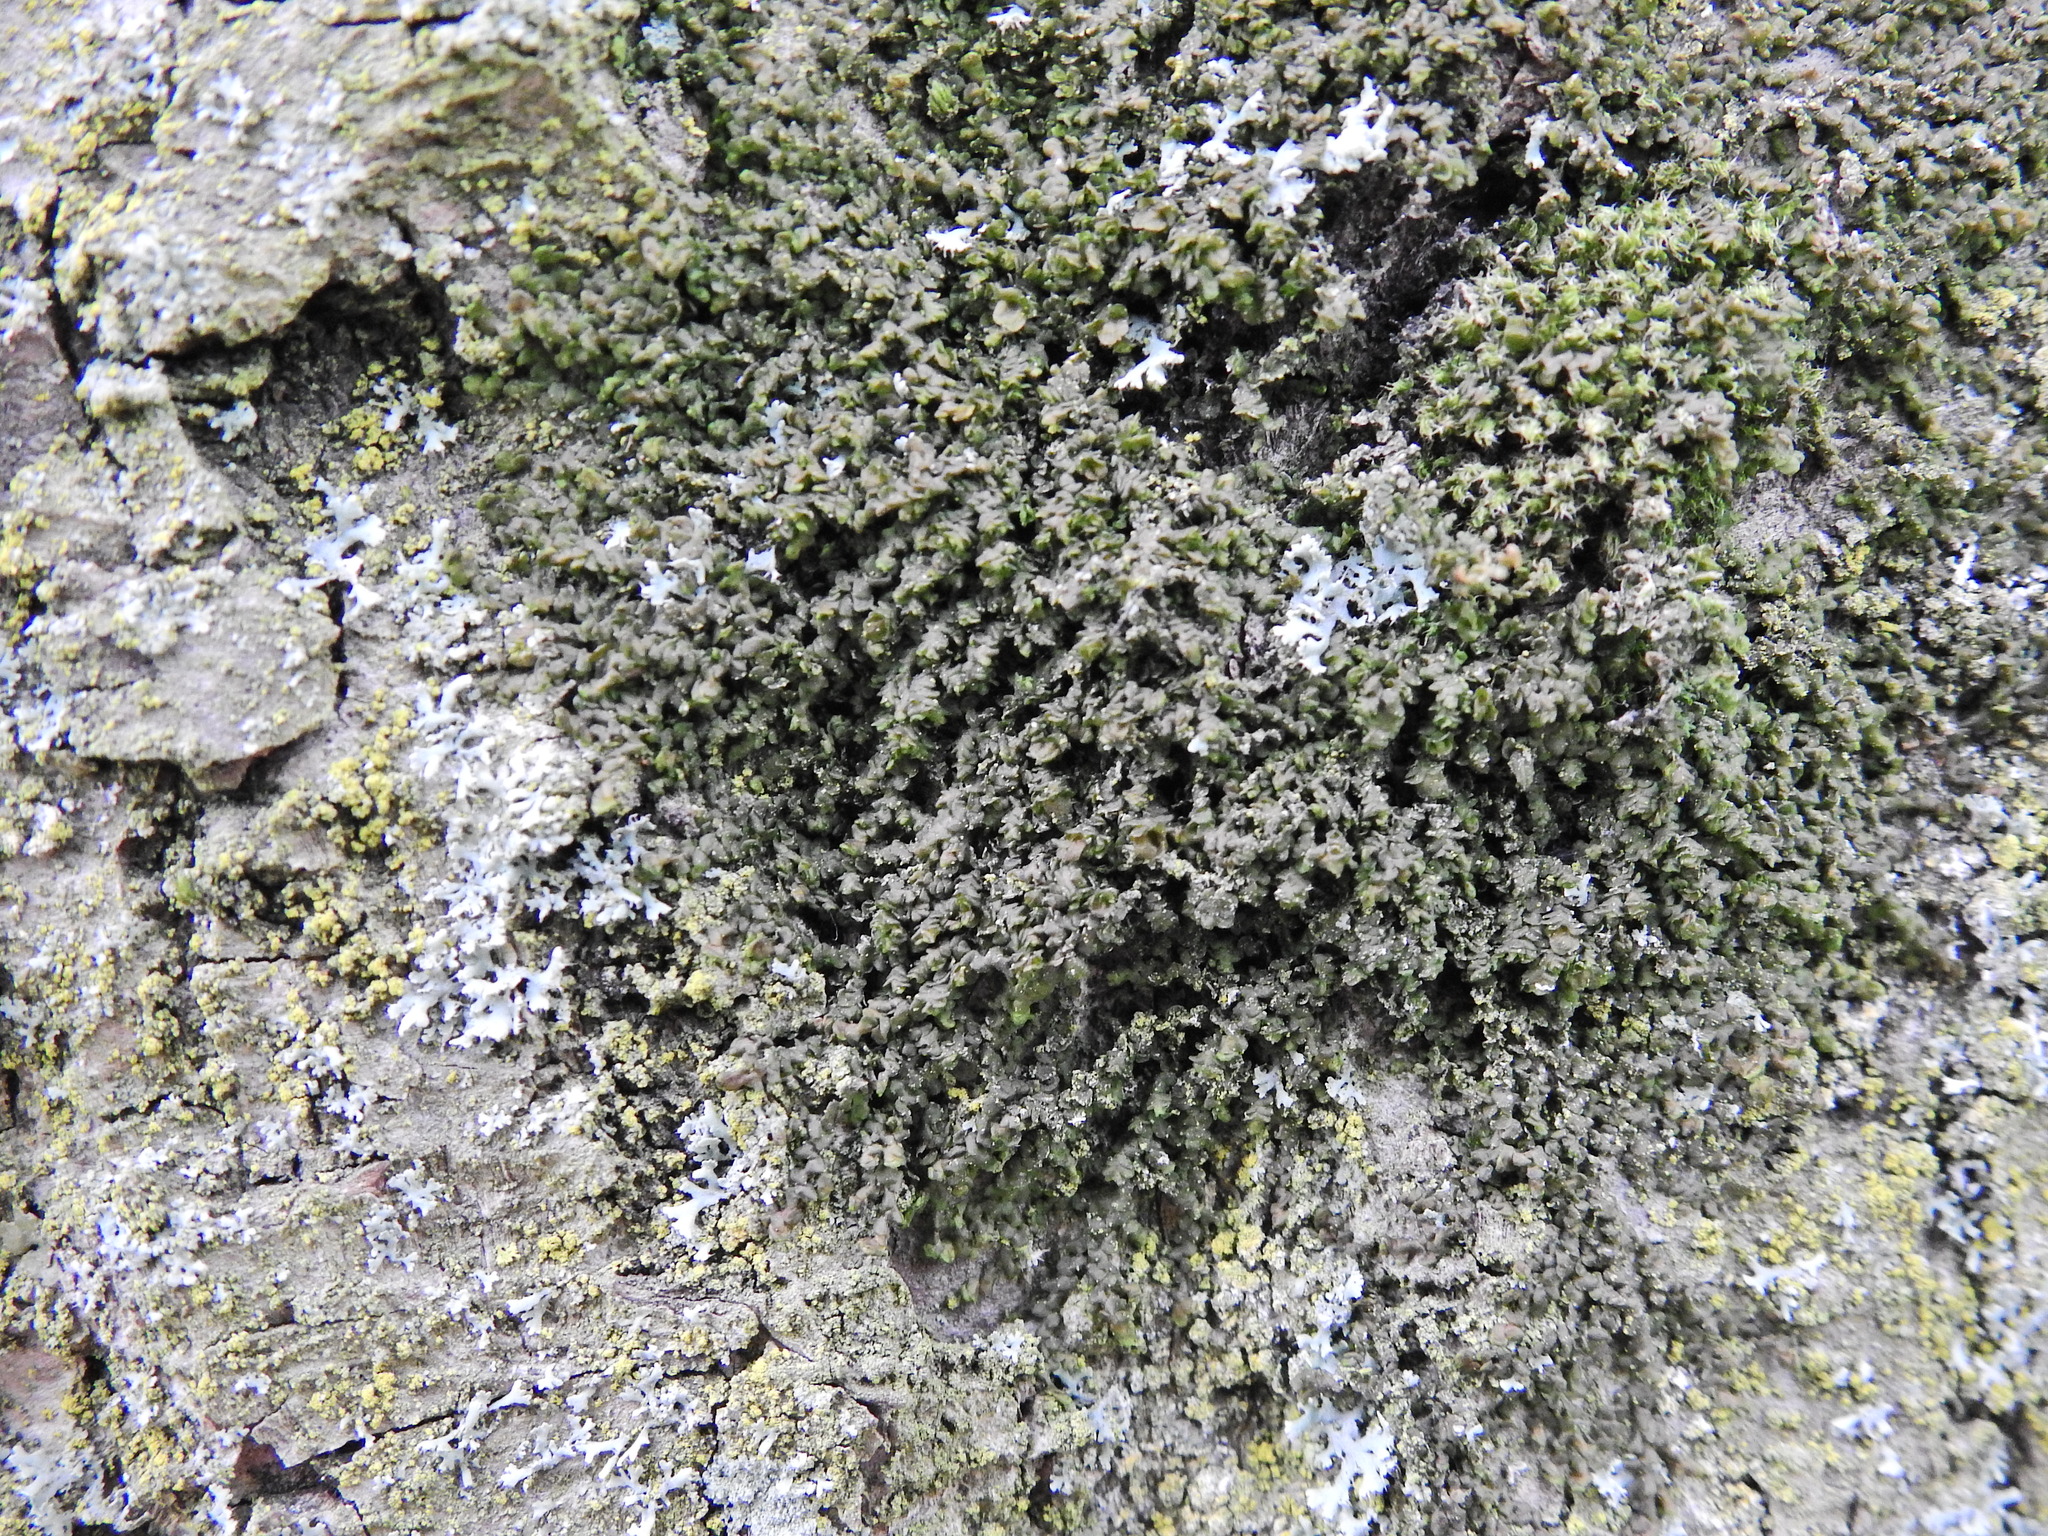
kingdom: Plantae
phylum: Marchantiophyta
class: Jungermanniopsida
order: Porellales
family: Frullaniaceae
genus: Frullania
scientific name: Frullania dilatata
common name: Dilated scalewort
